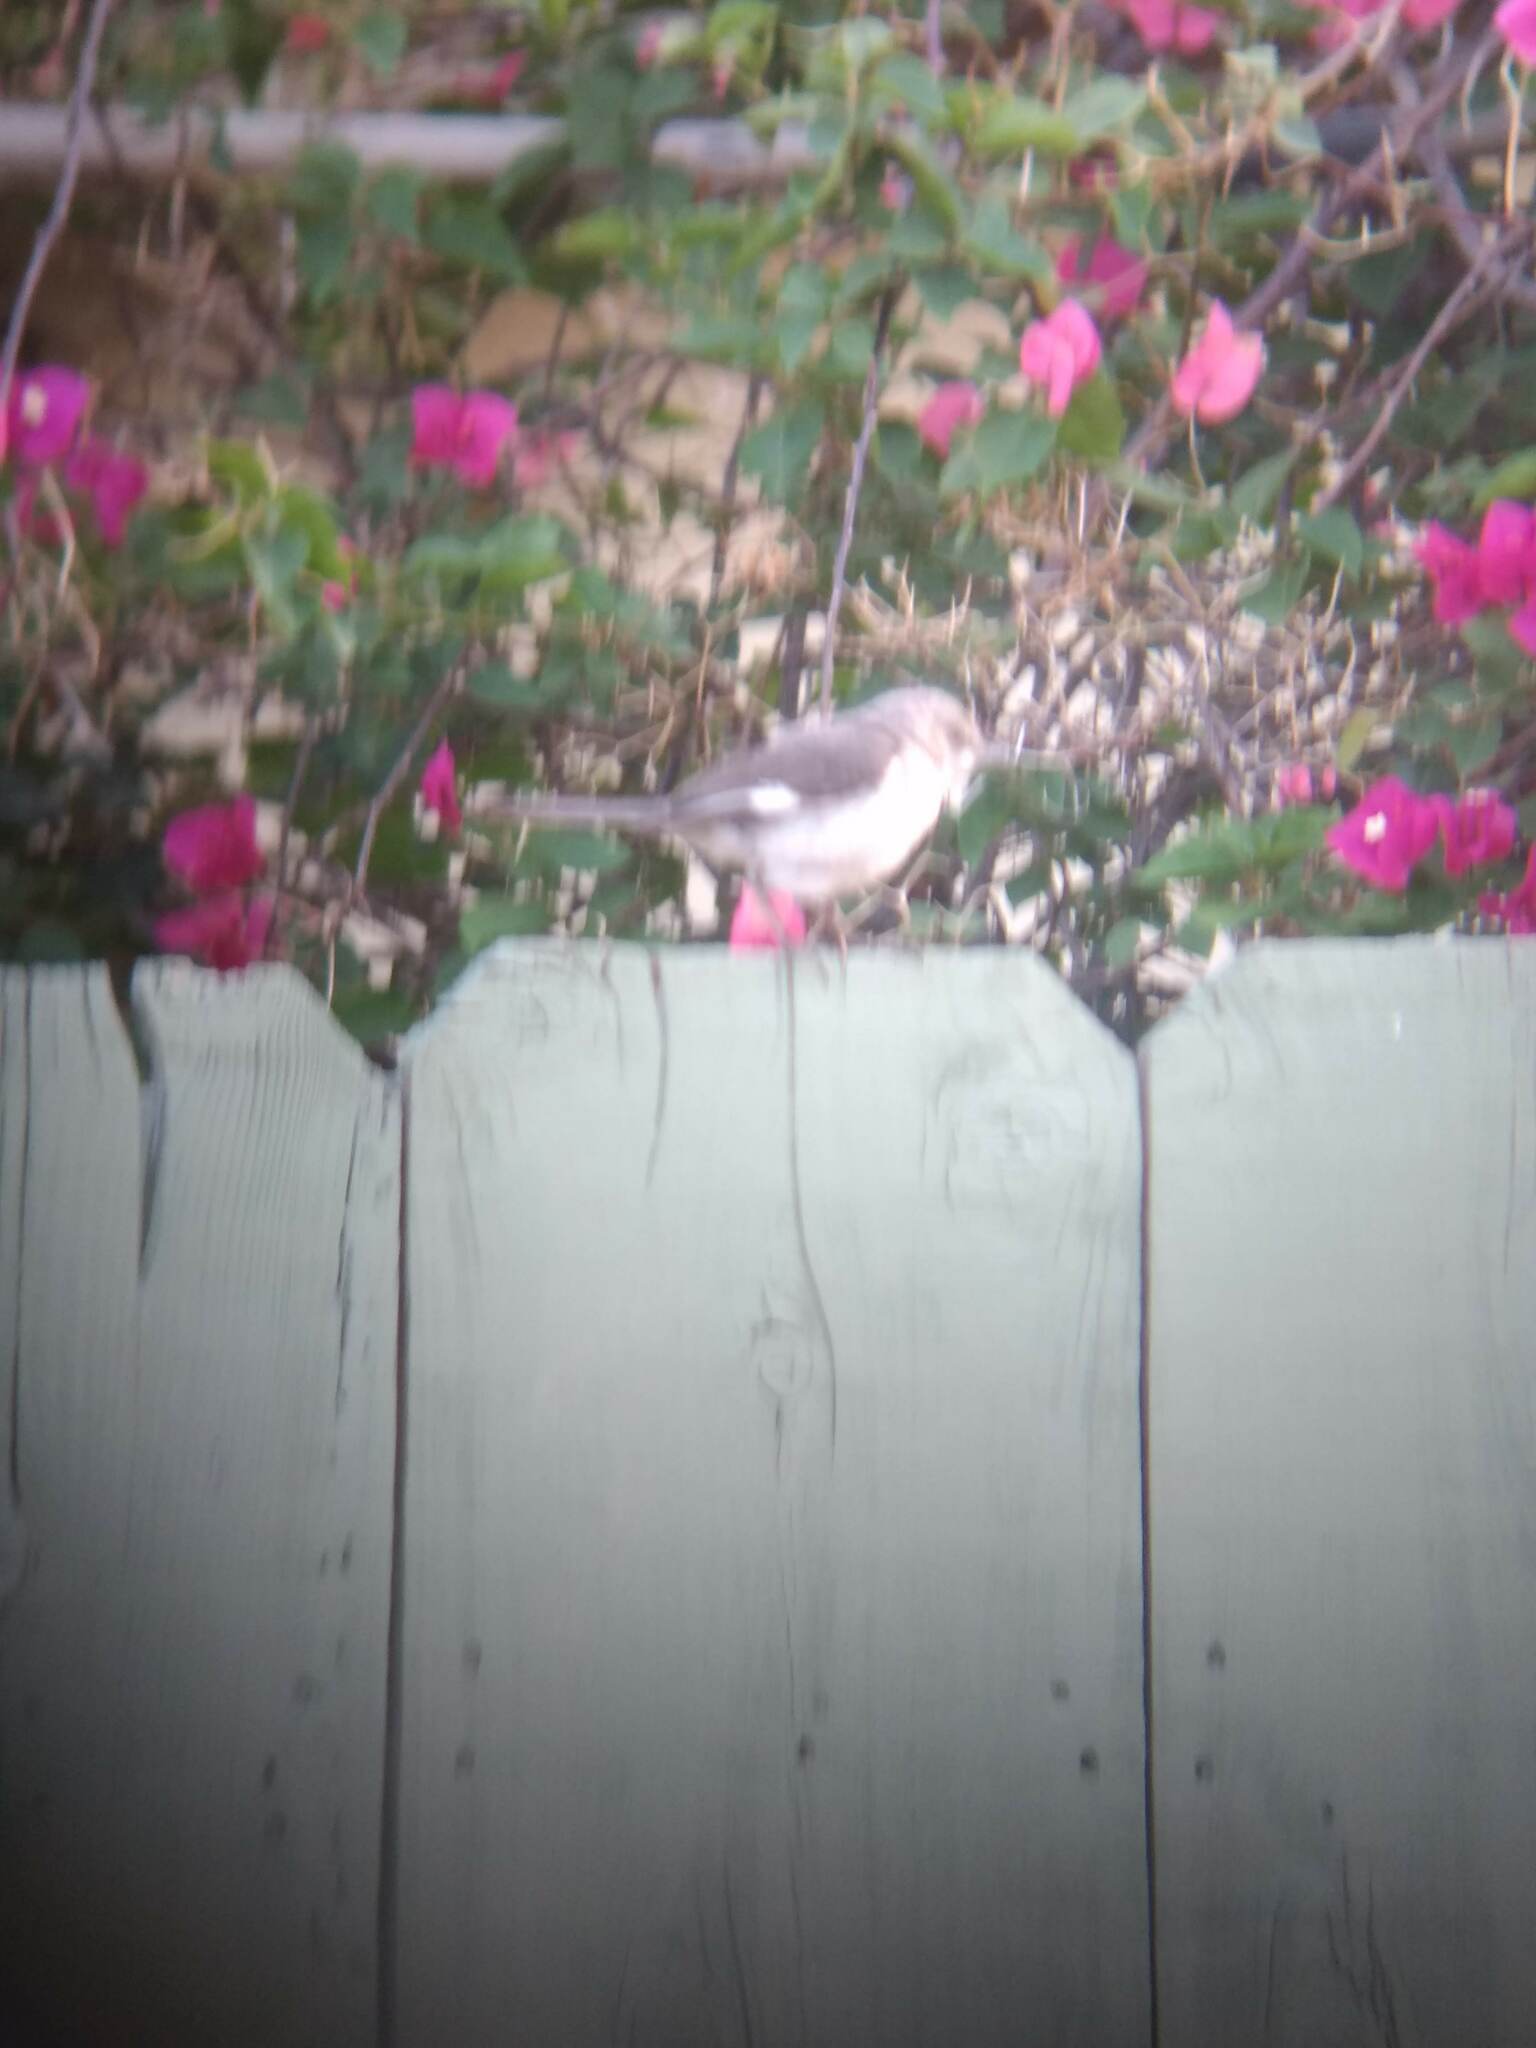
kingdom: Animalia
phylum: Chordata
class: Aves
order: Passeriformes
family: Mimidae
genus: Mimus
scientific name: Mimus polyglottos
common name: Northern mockingbird
